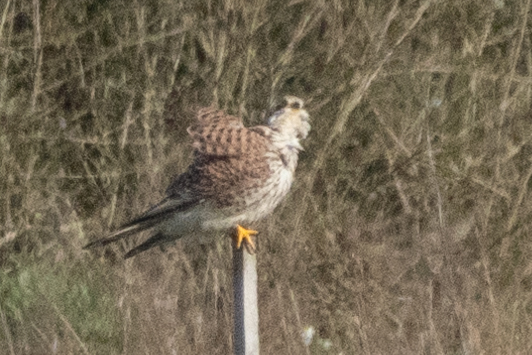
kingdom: Animalia
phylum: Chordata
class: Aves
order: Falconiformes
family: Falconidae
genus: Falco
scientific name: Falco tinnunculus
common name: Common kestrel
